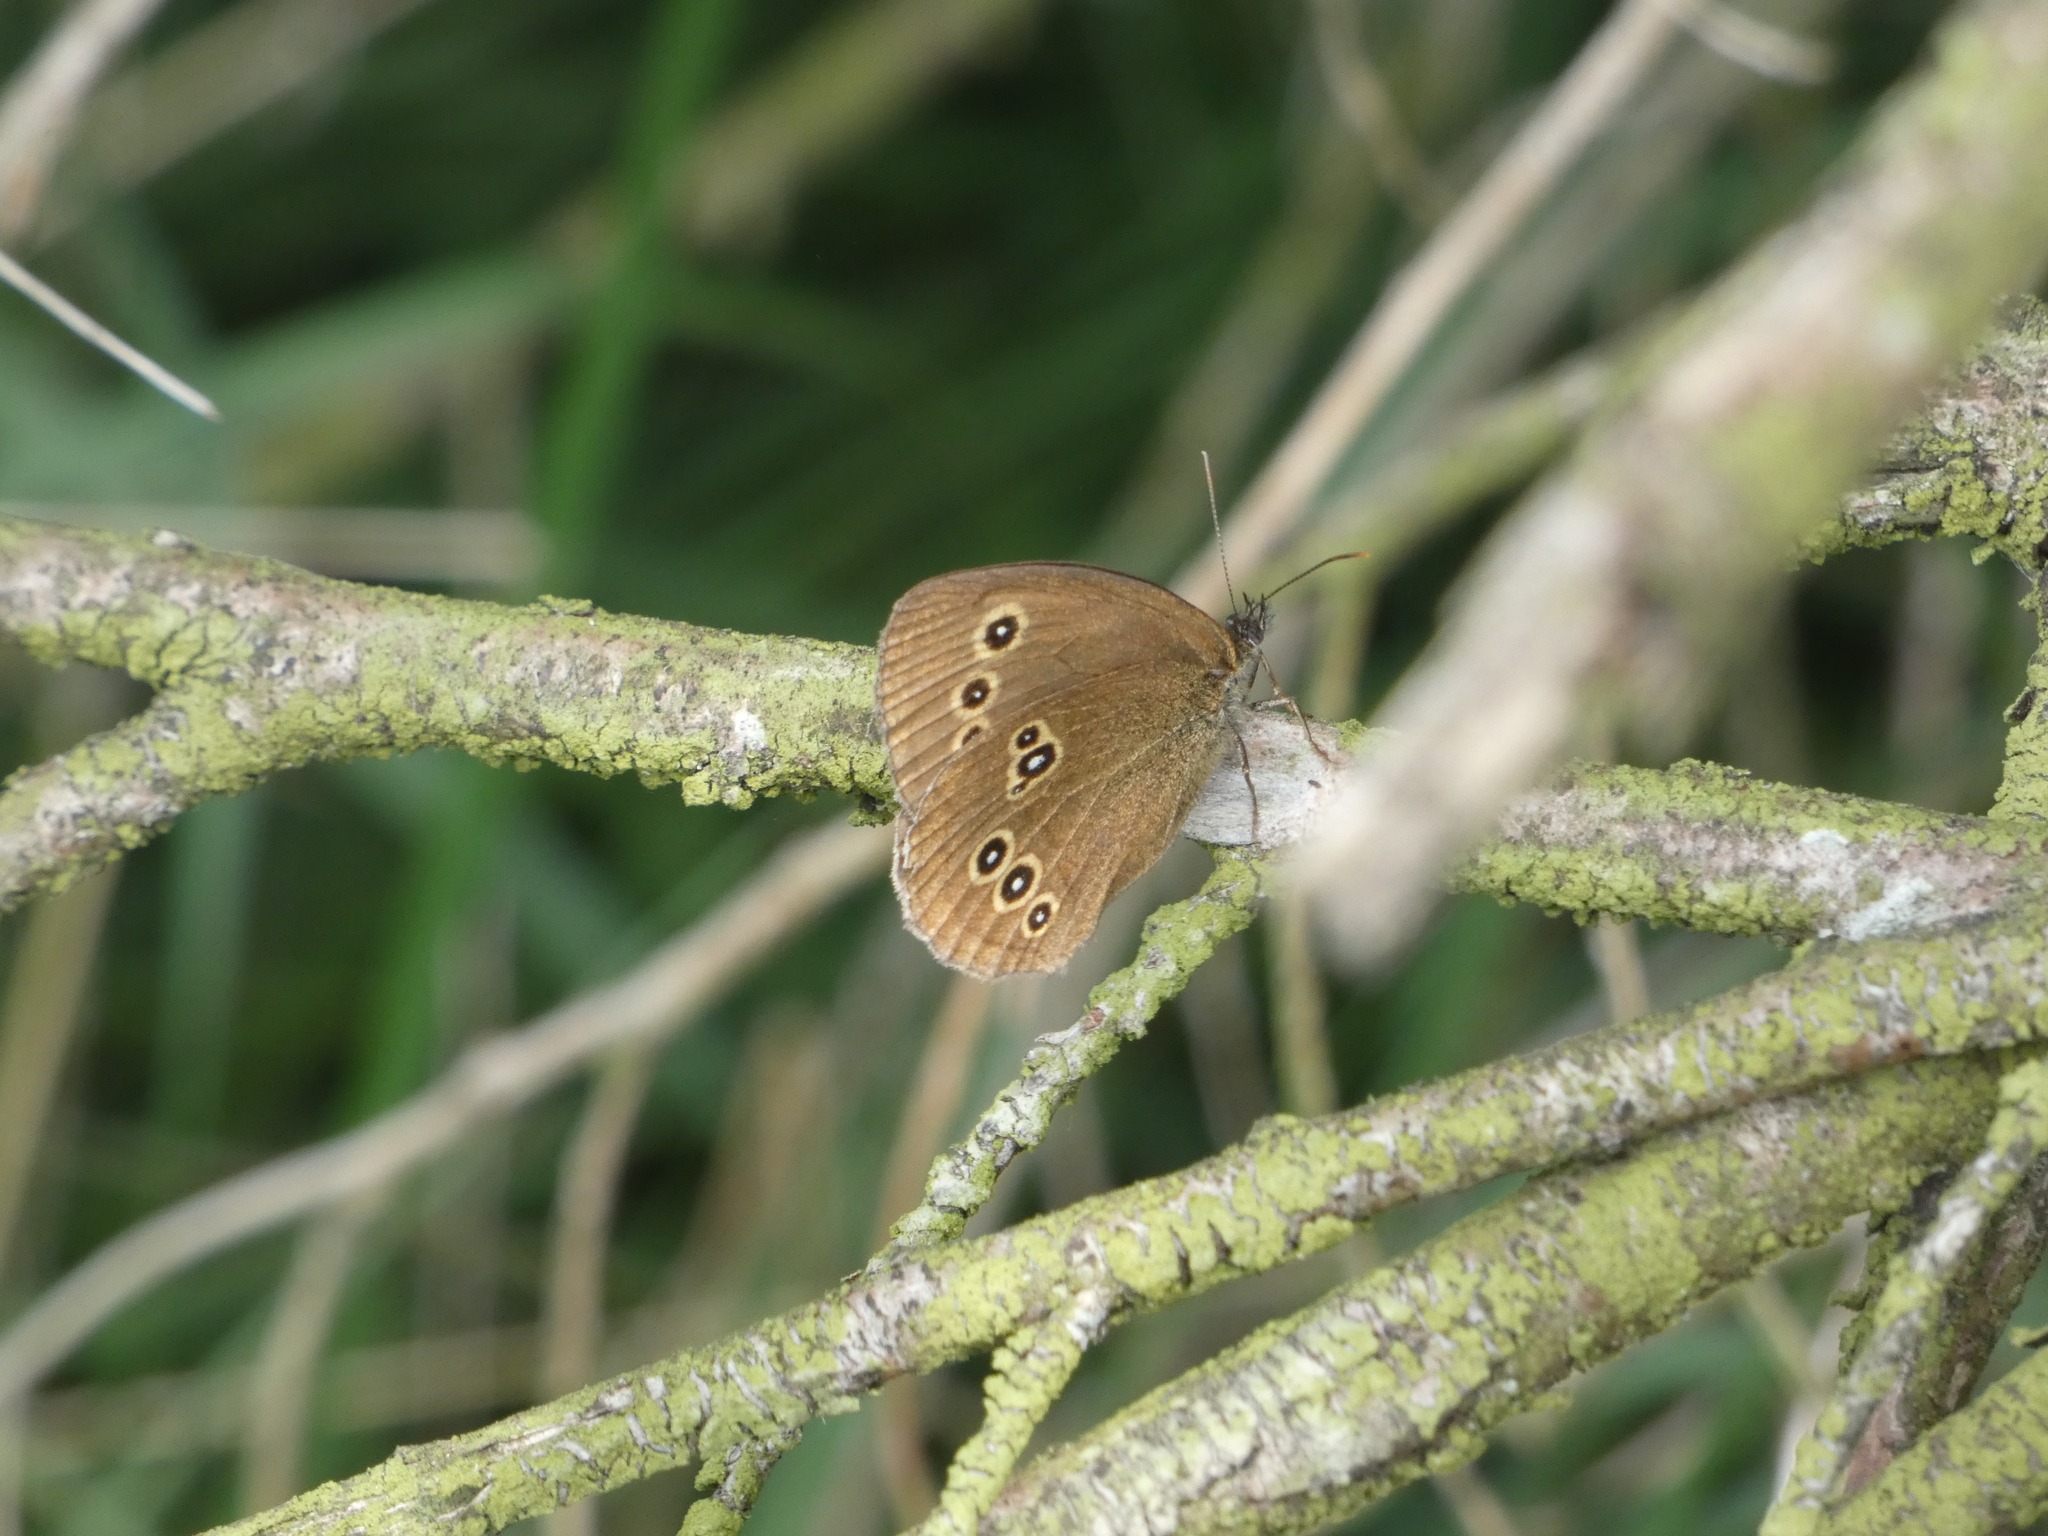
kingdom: Animalia
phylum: Arthropoda
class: Insecta
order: Lepidoptera
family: Nymphalidae
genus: Aphantopus
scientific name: Aphantopus hyperantus
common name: Ringlet
